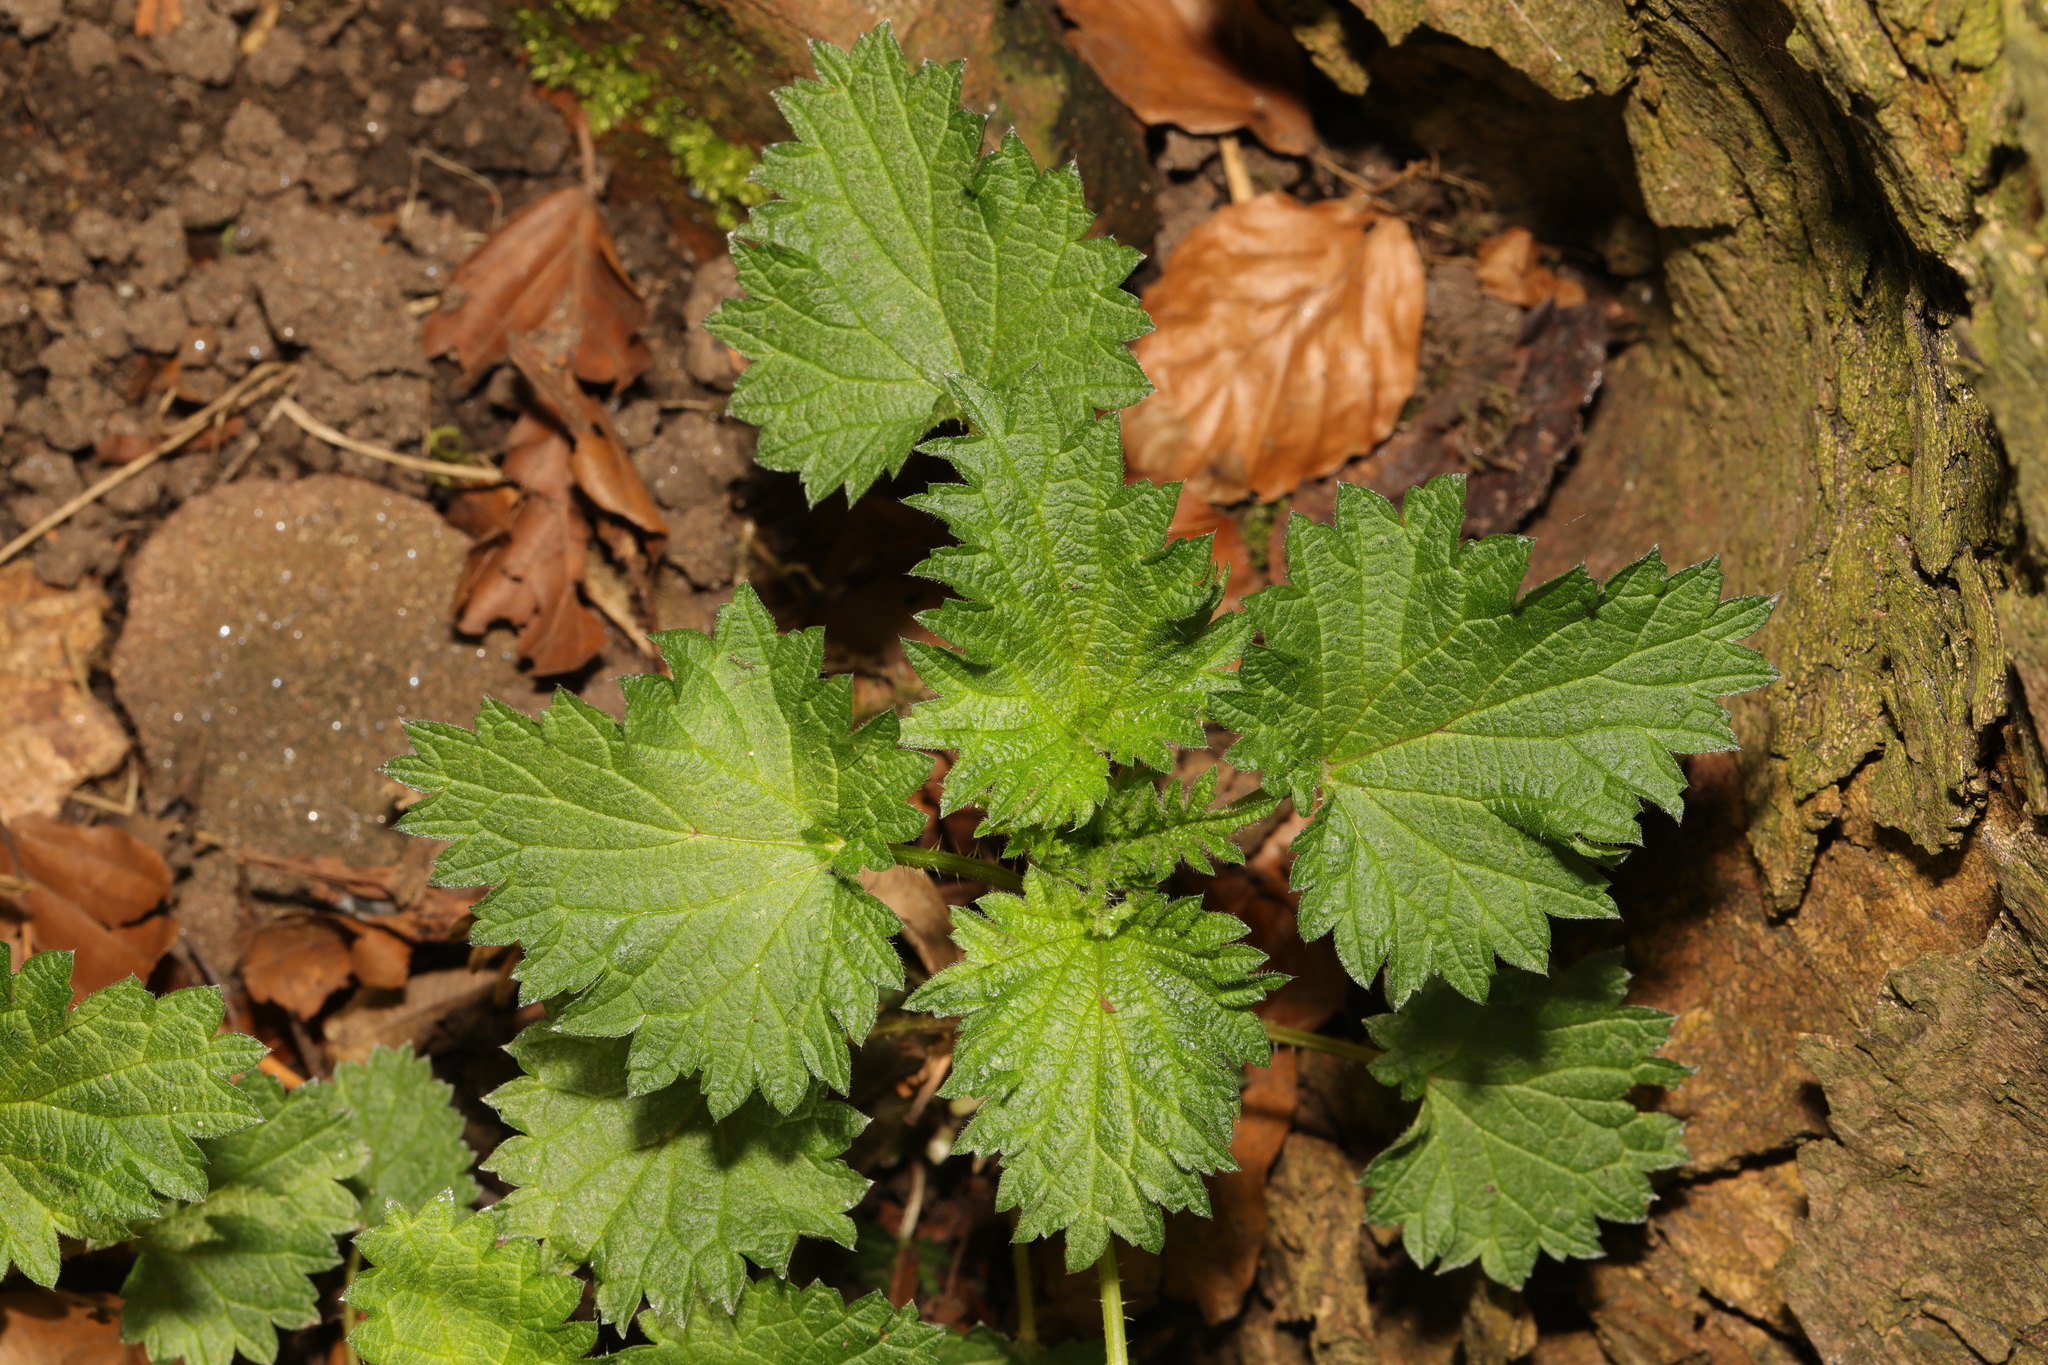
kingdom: Plantae
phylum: Tracheophyta
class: Magnoliopsida
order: Rosales
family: Urticaceae
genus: Urtica
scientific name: Urtica dioica
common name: Common nettle
